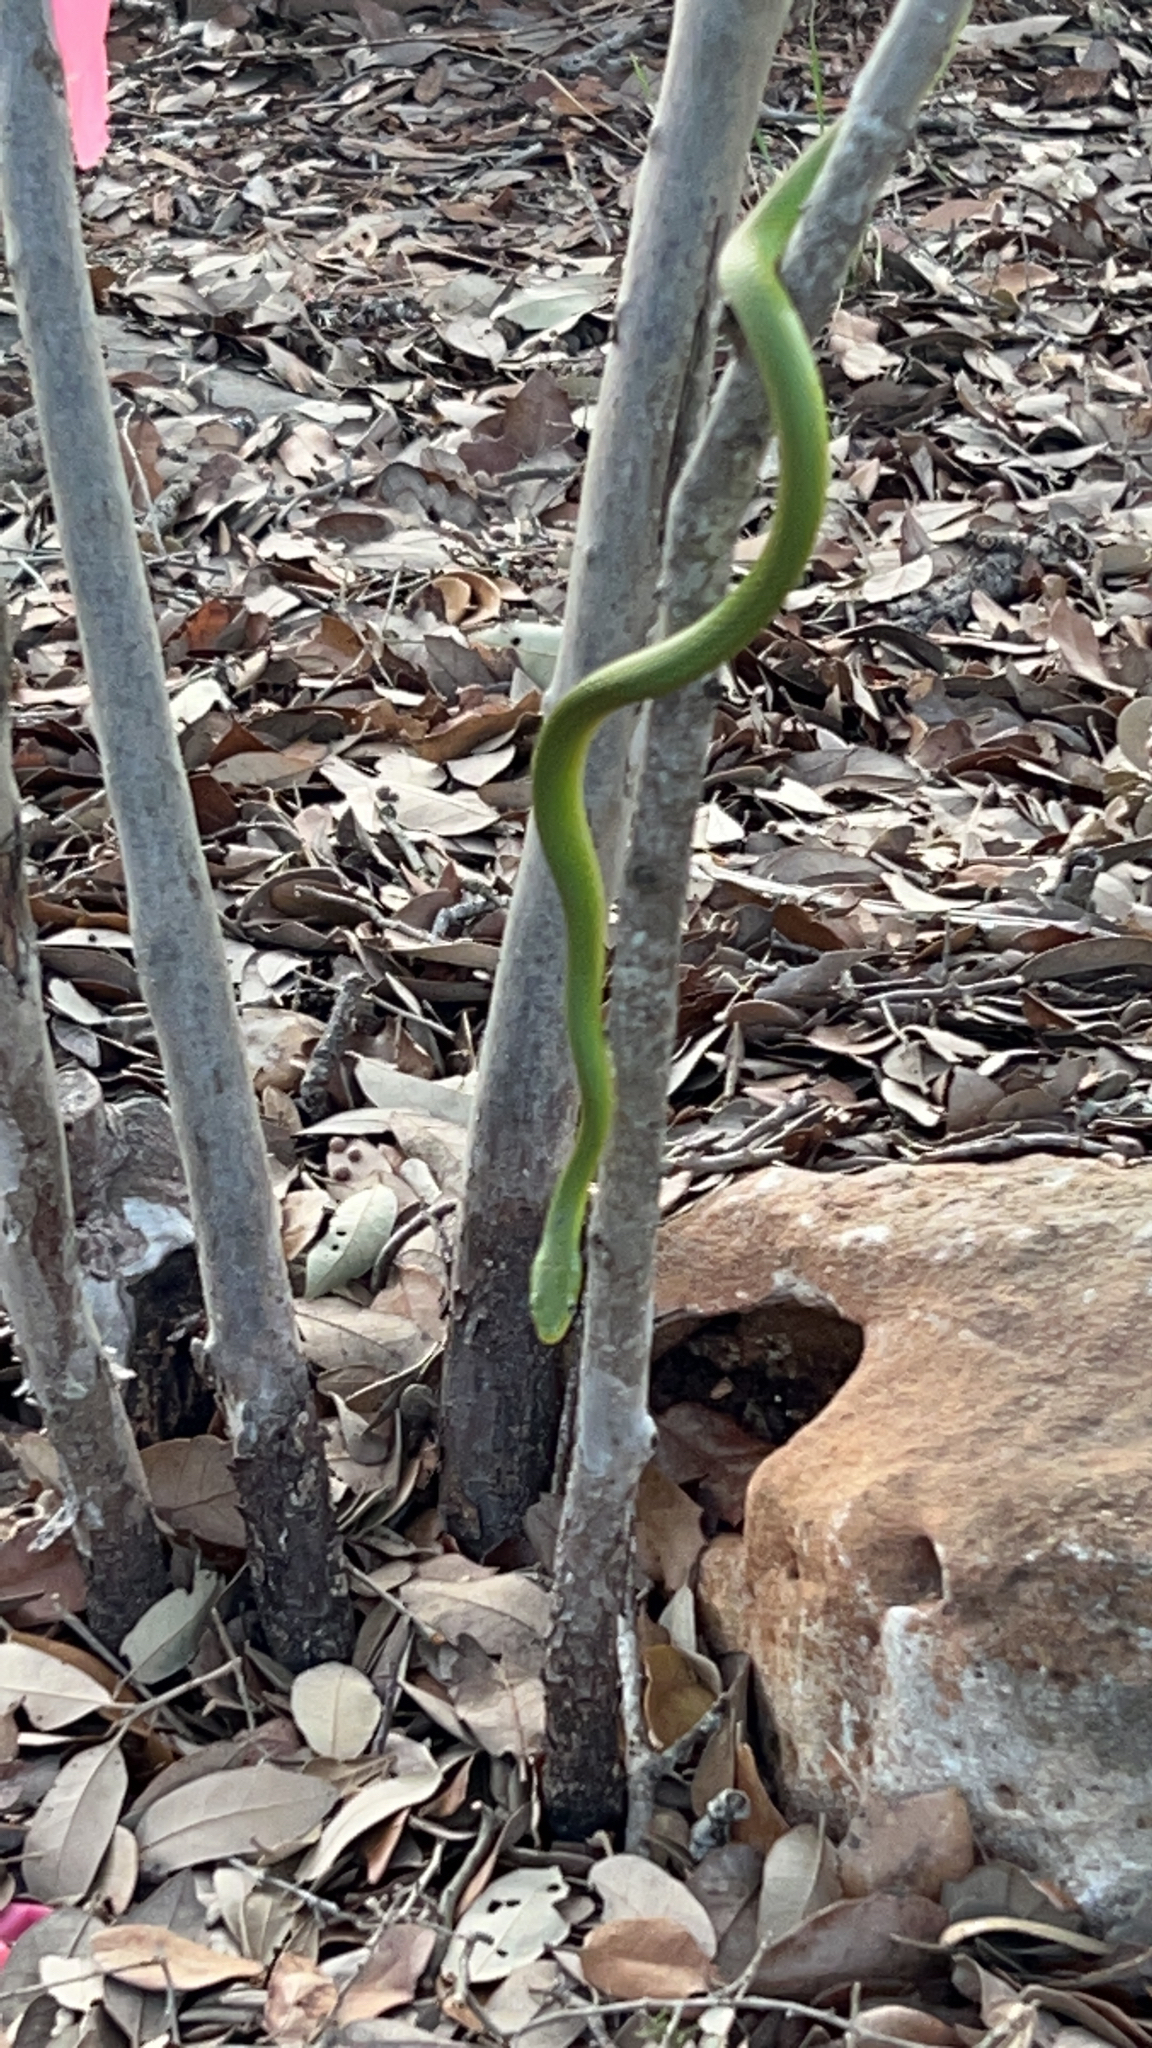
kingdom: Animalia
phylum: Chordata
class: Squamata
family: Colubridae
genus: Opheodrys
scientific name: Opheodrys aestivus
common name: Rough greensnake
